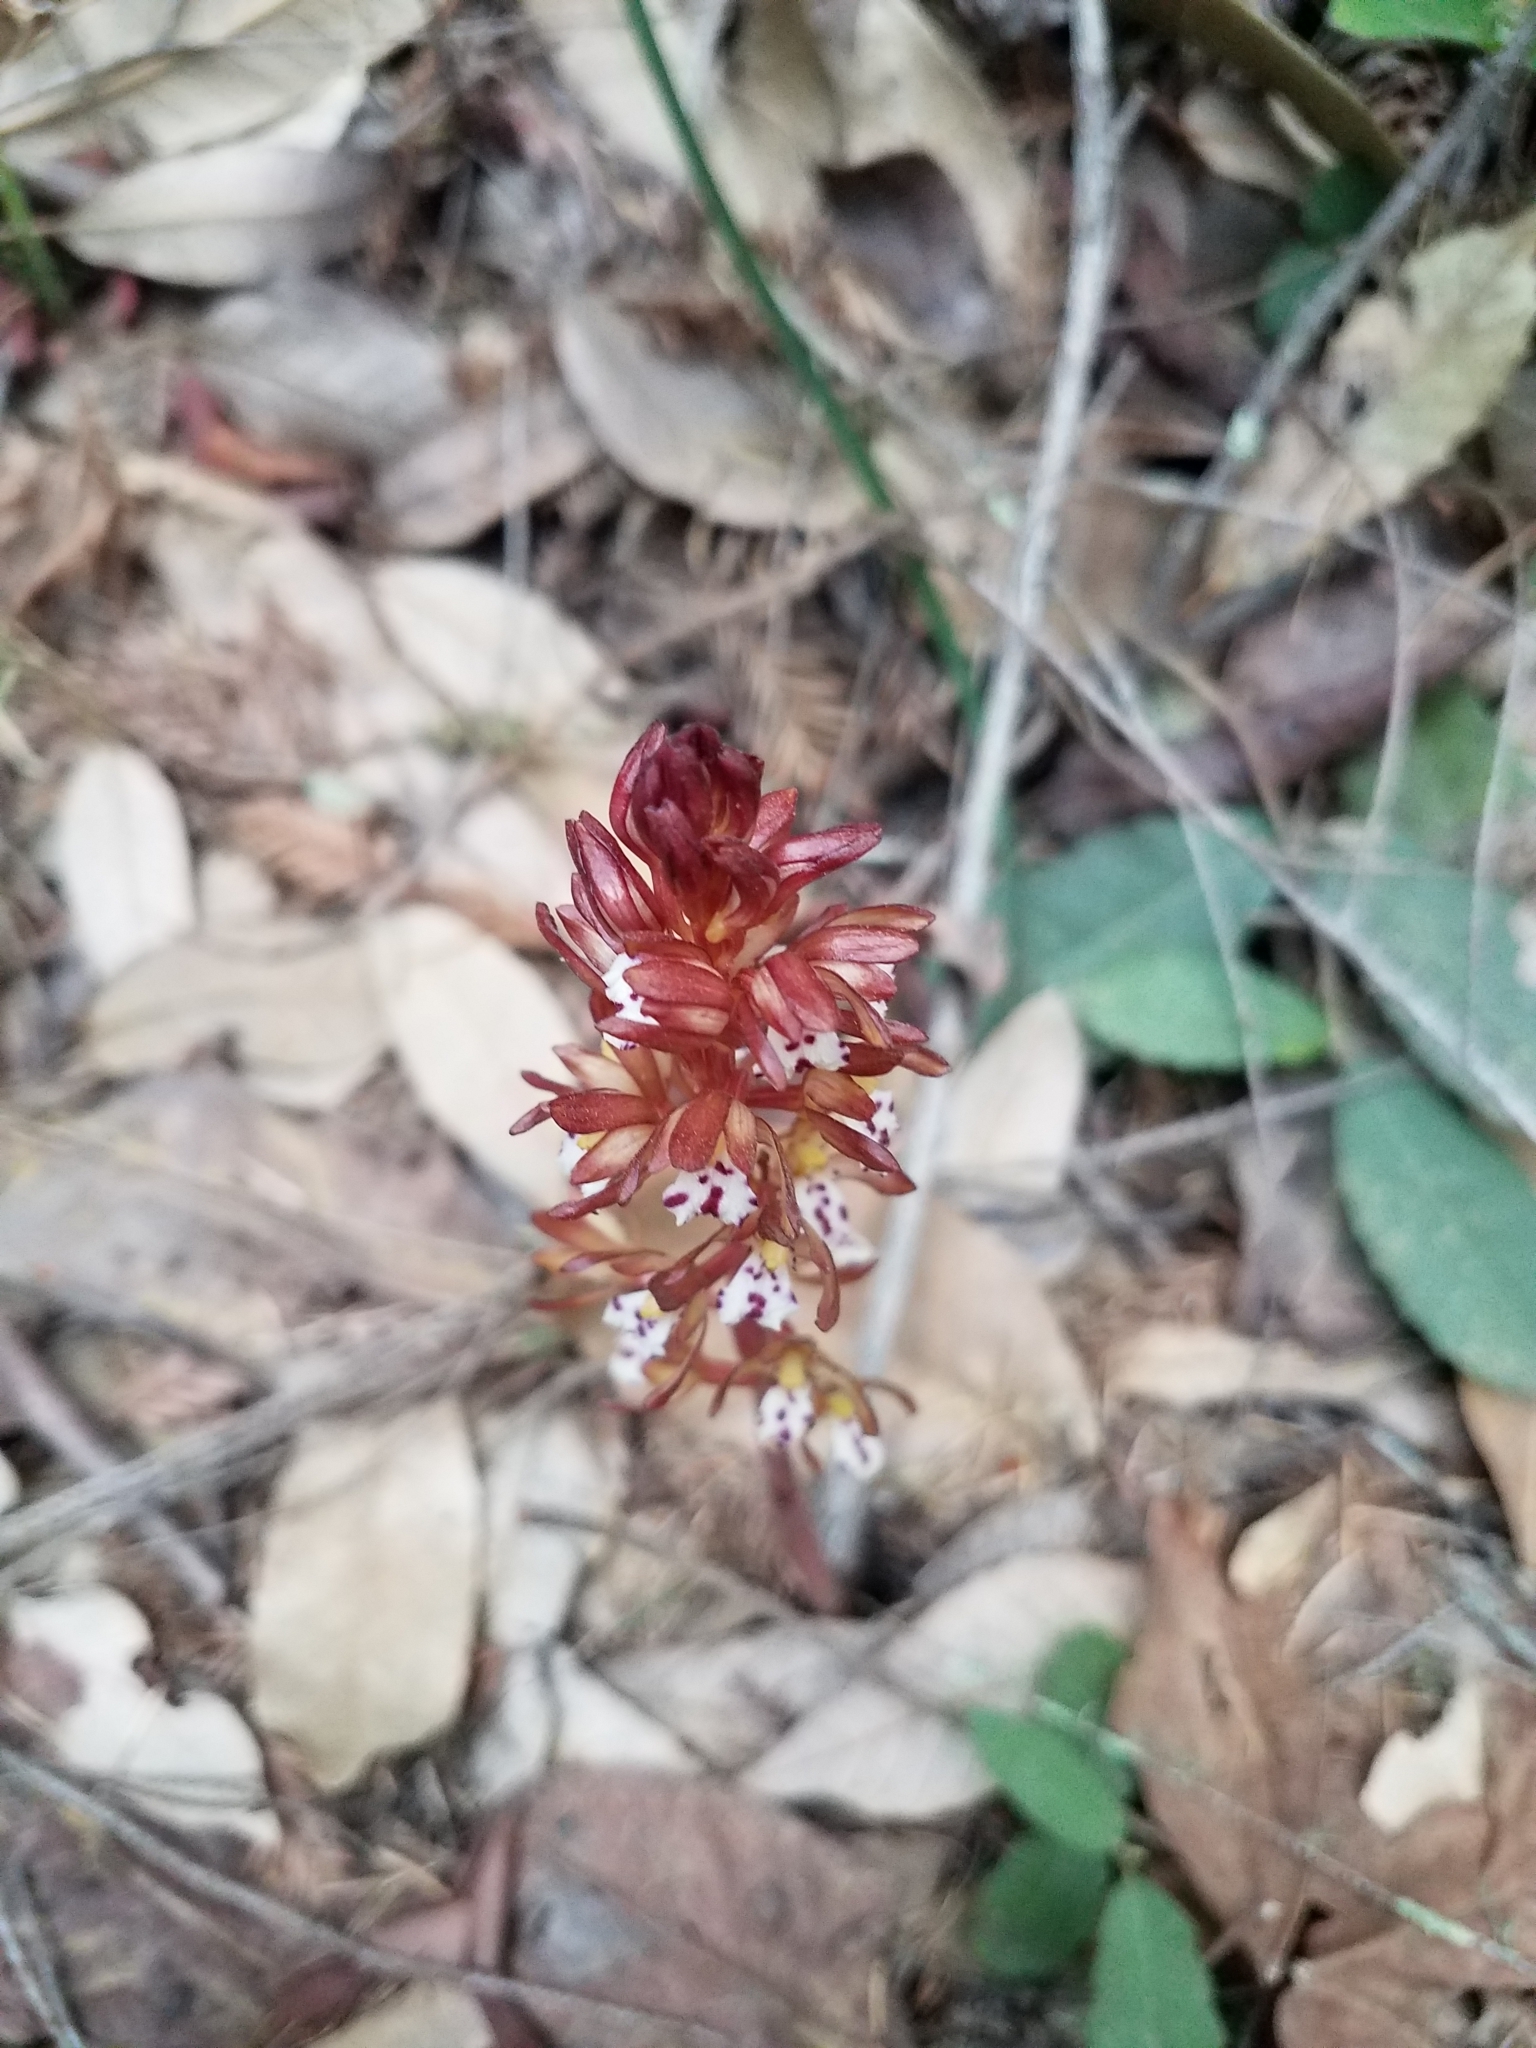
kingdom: Plantae
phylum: Tracheophyta
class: Liliopsida
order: Asparagales
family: Orchidaceae
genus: Corallorhiza
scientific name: Corallorhiza maculata
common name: Spotted coralroot
